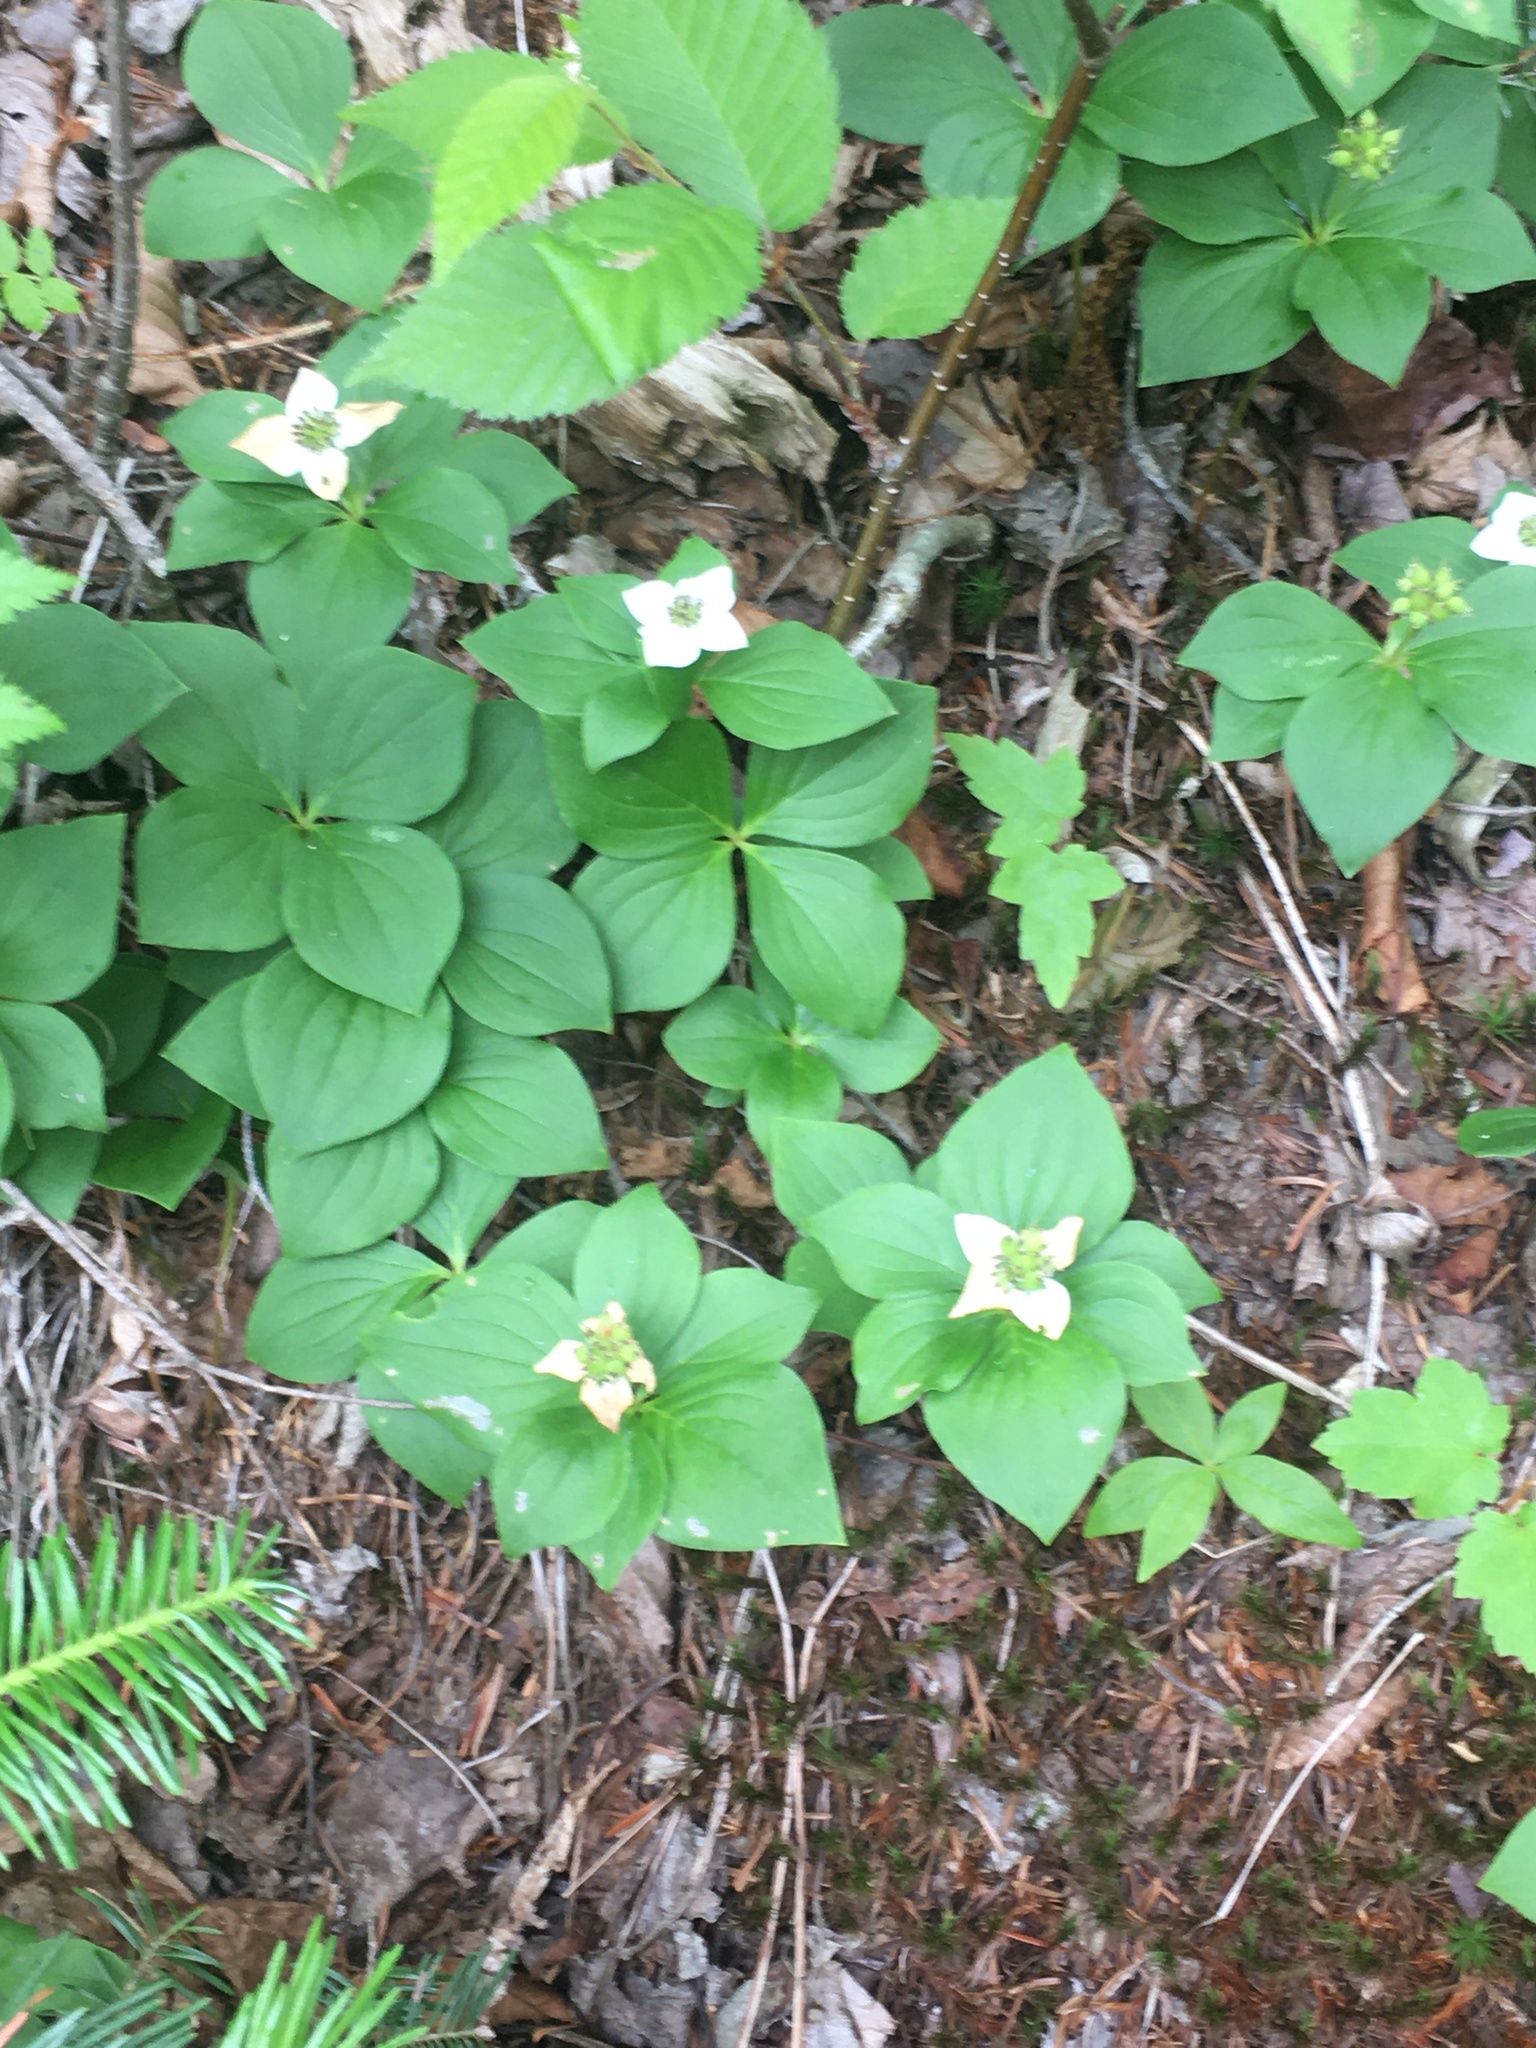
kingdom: Plantae
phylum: Tracheophyta
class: Magnoliopsida
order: Cornales
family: Cornaceae
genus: Cornus
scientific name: Cornus canadensis
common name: Creeping dogwood
